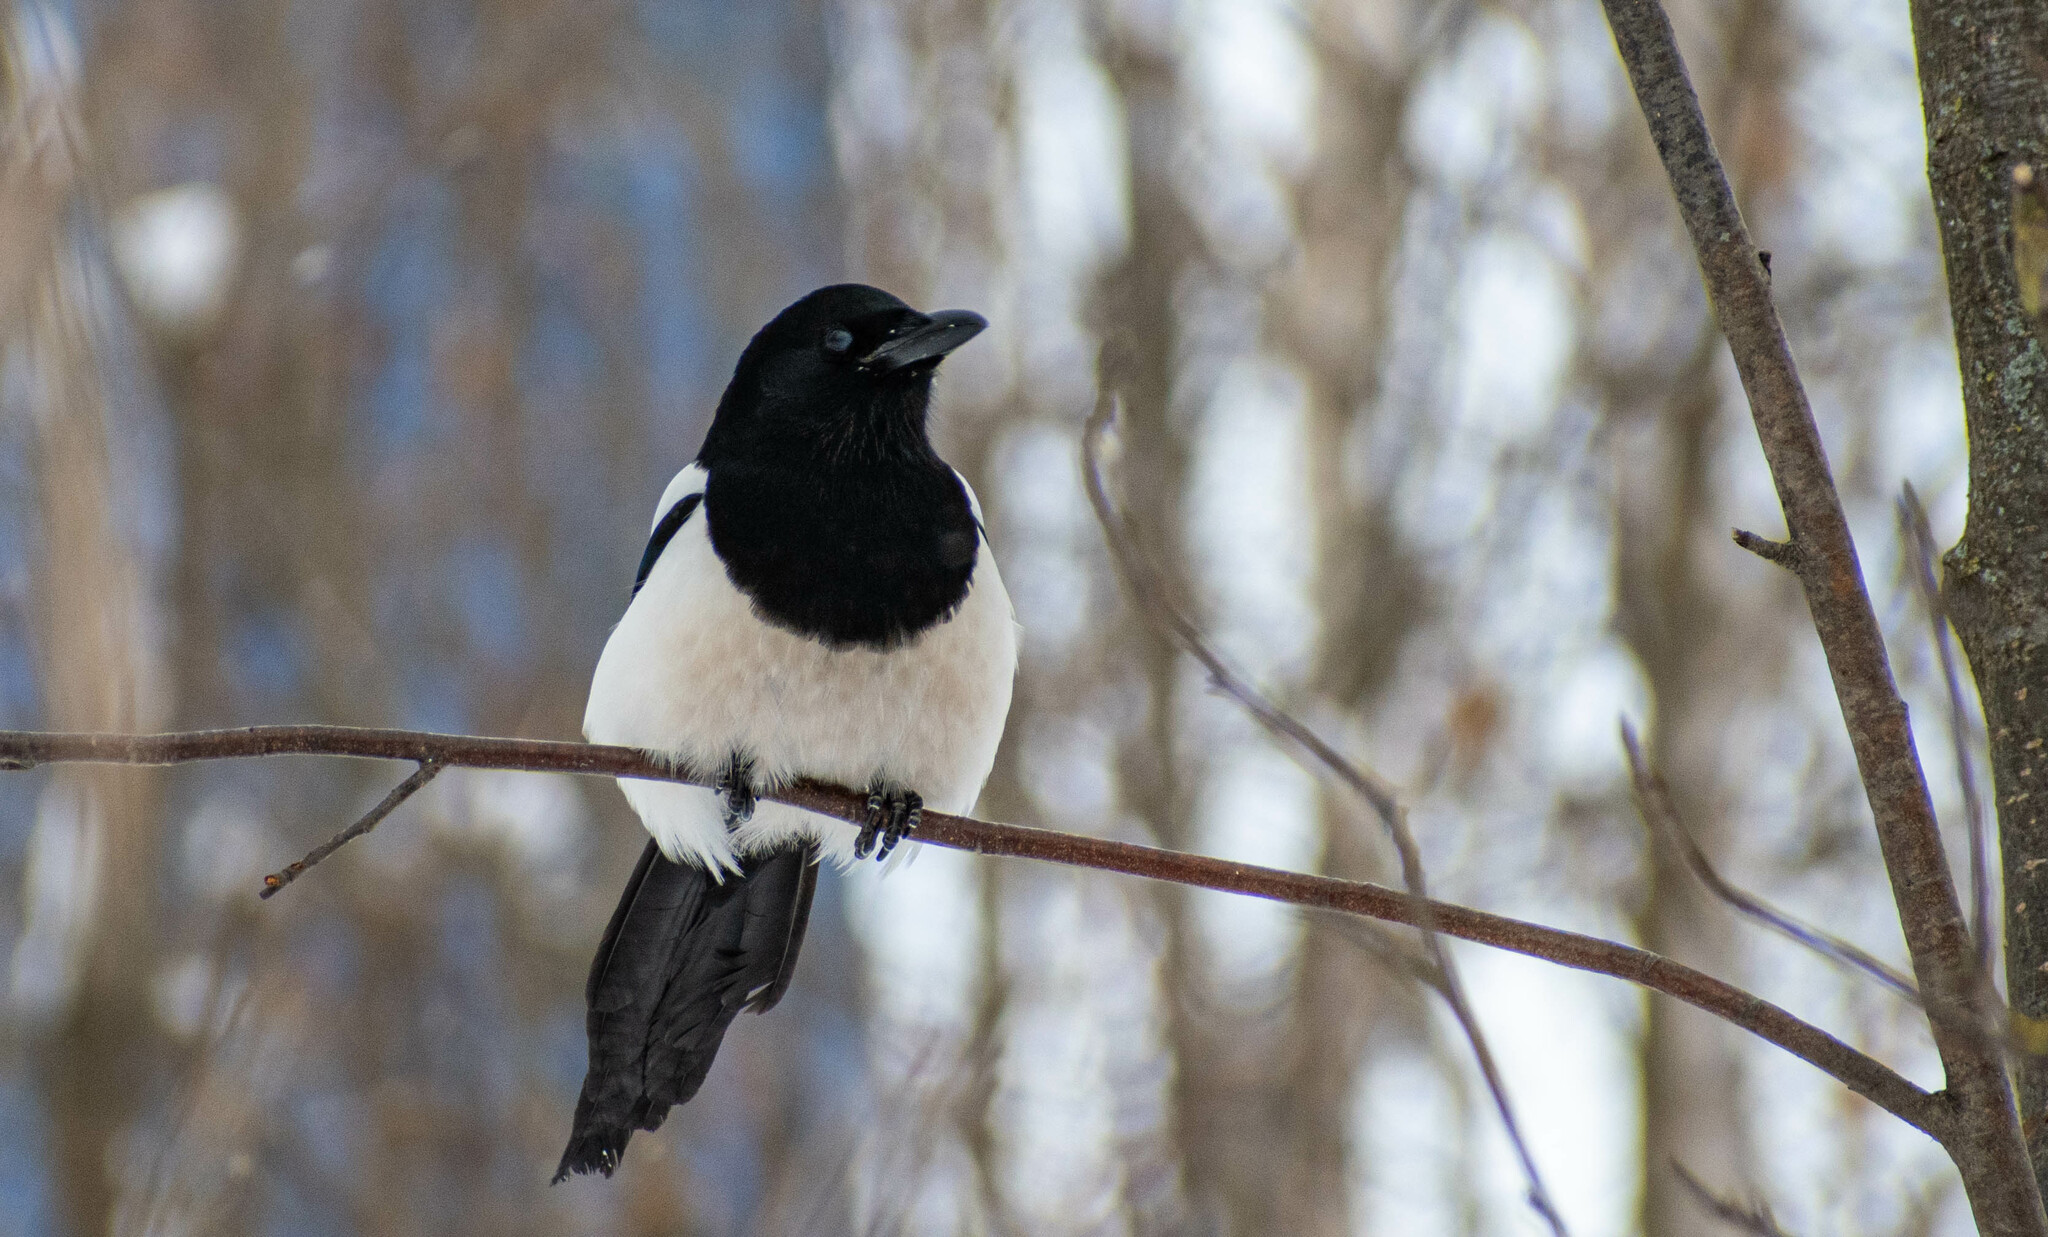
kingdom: Animalia
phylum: Chordata
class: Aves
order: Passeriformes
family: Corvidae
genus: Pica
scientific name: Pica pica
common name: Eurasian magpie
